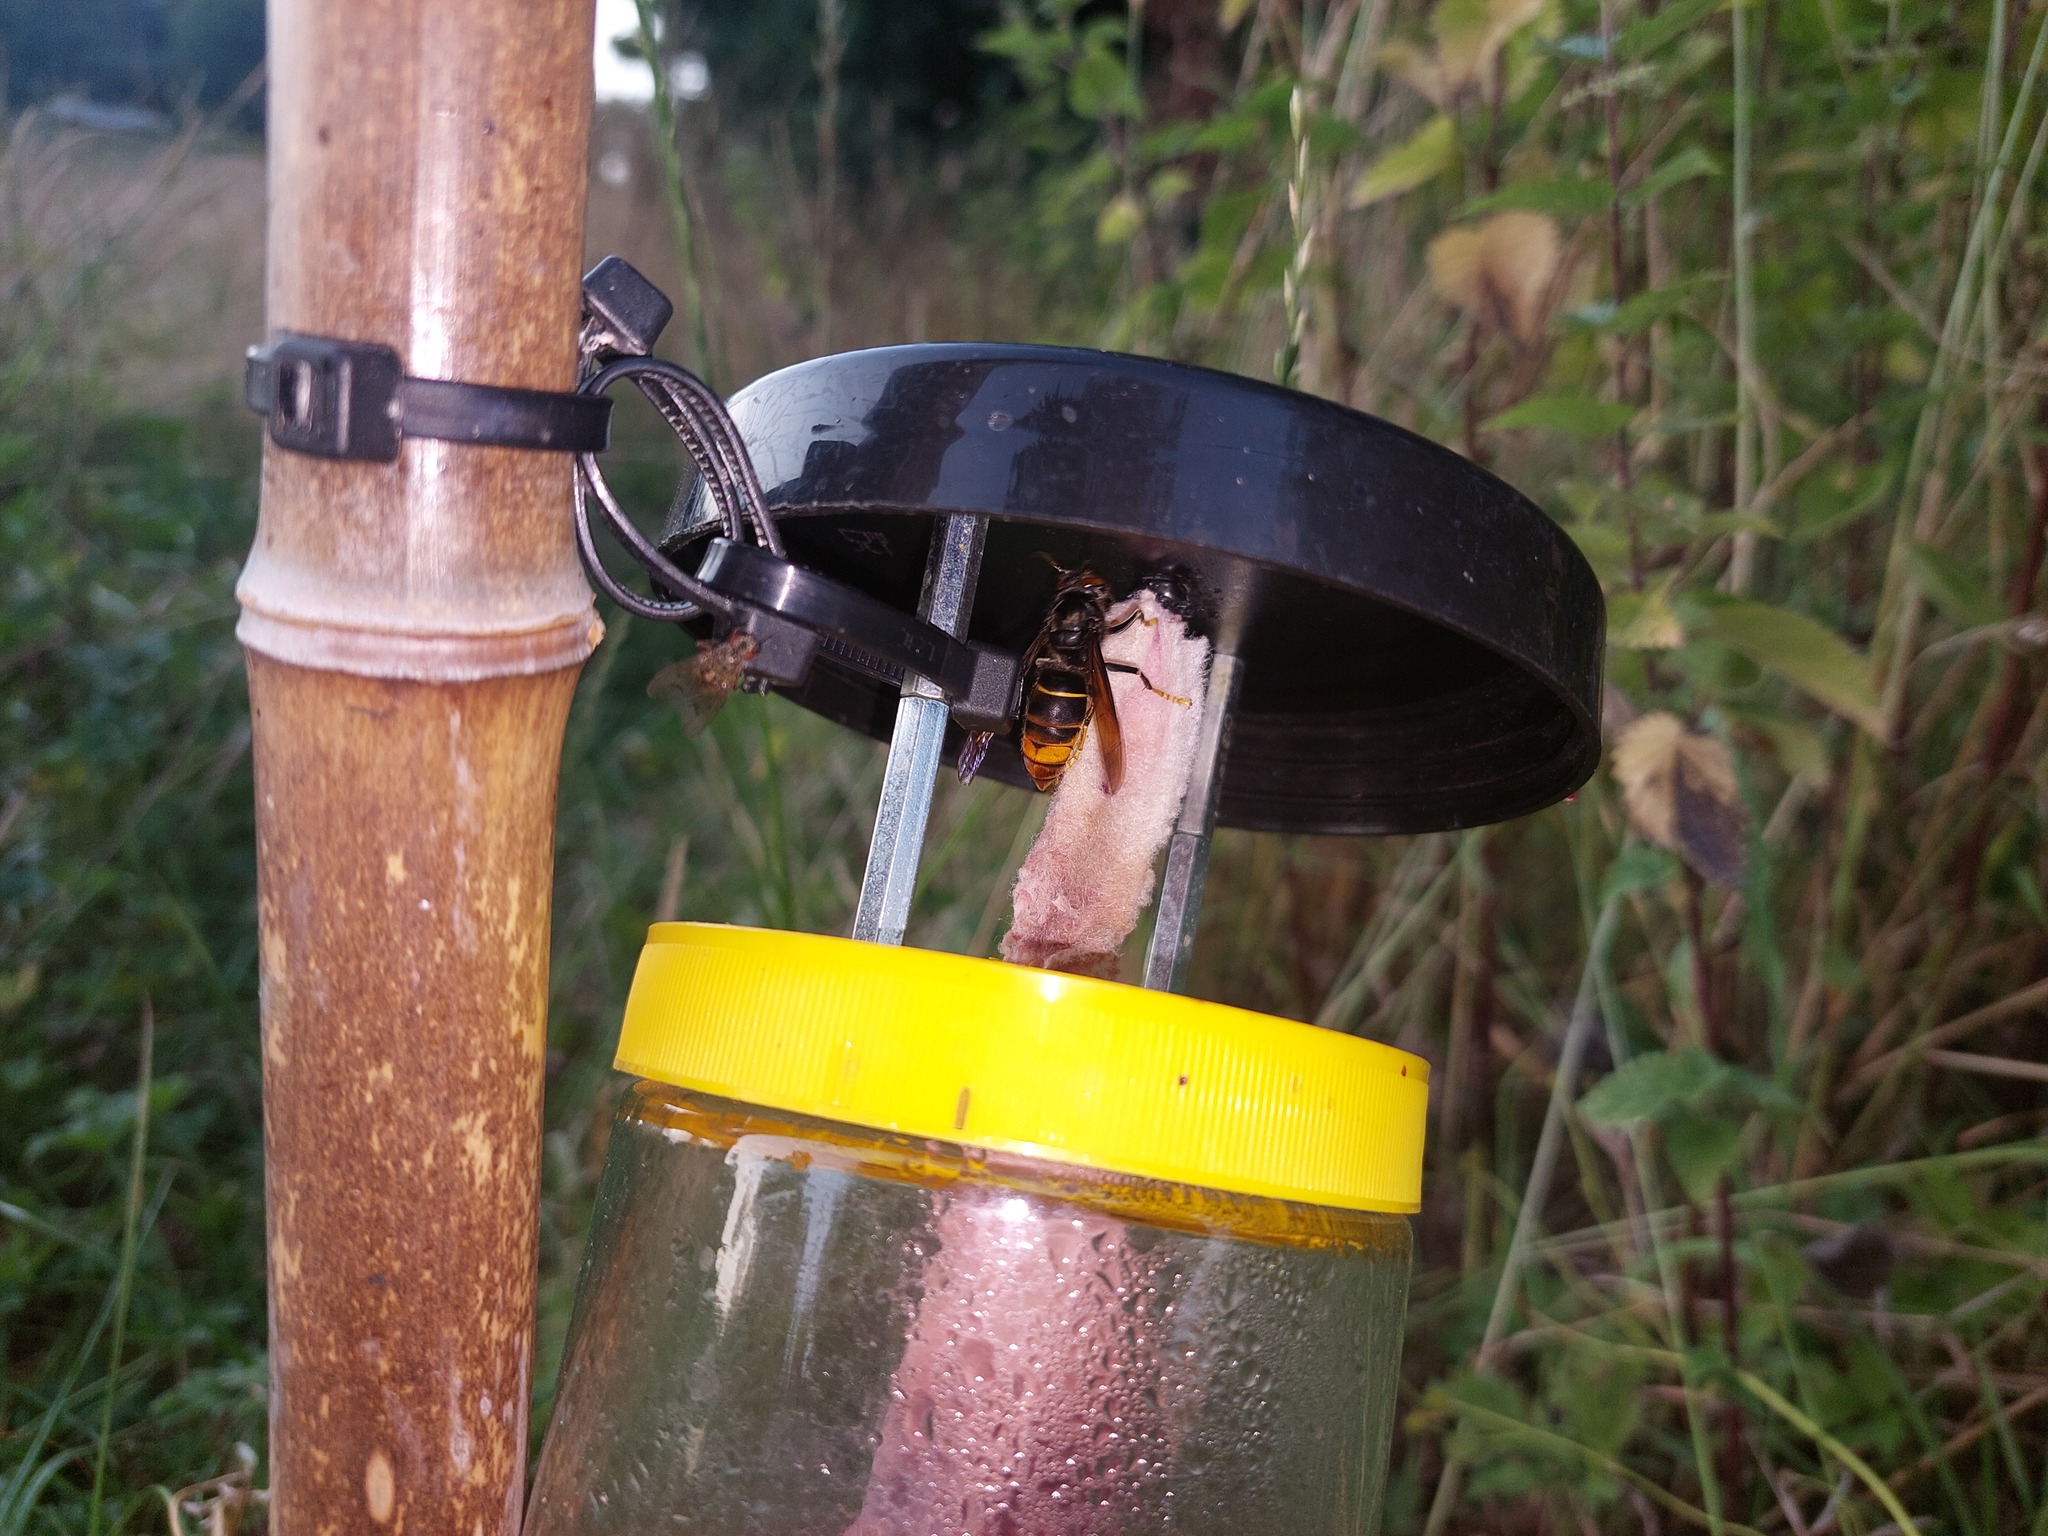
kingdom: Animalia
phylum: Arthropoda
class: Insecta
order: Hymenoptera
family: Vespidae
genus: Vespa
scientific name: Vespa velutina
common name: Asian hornet
